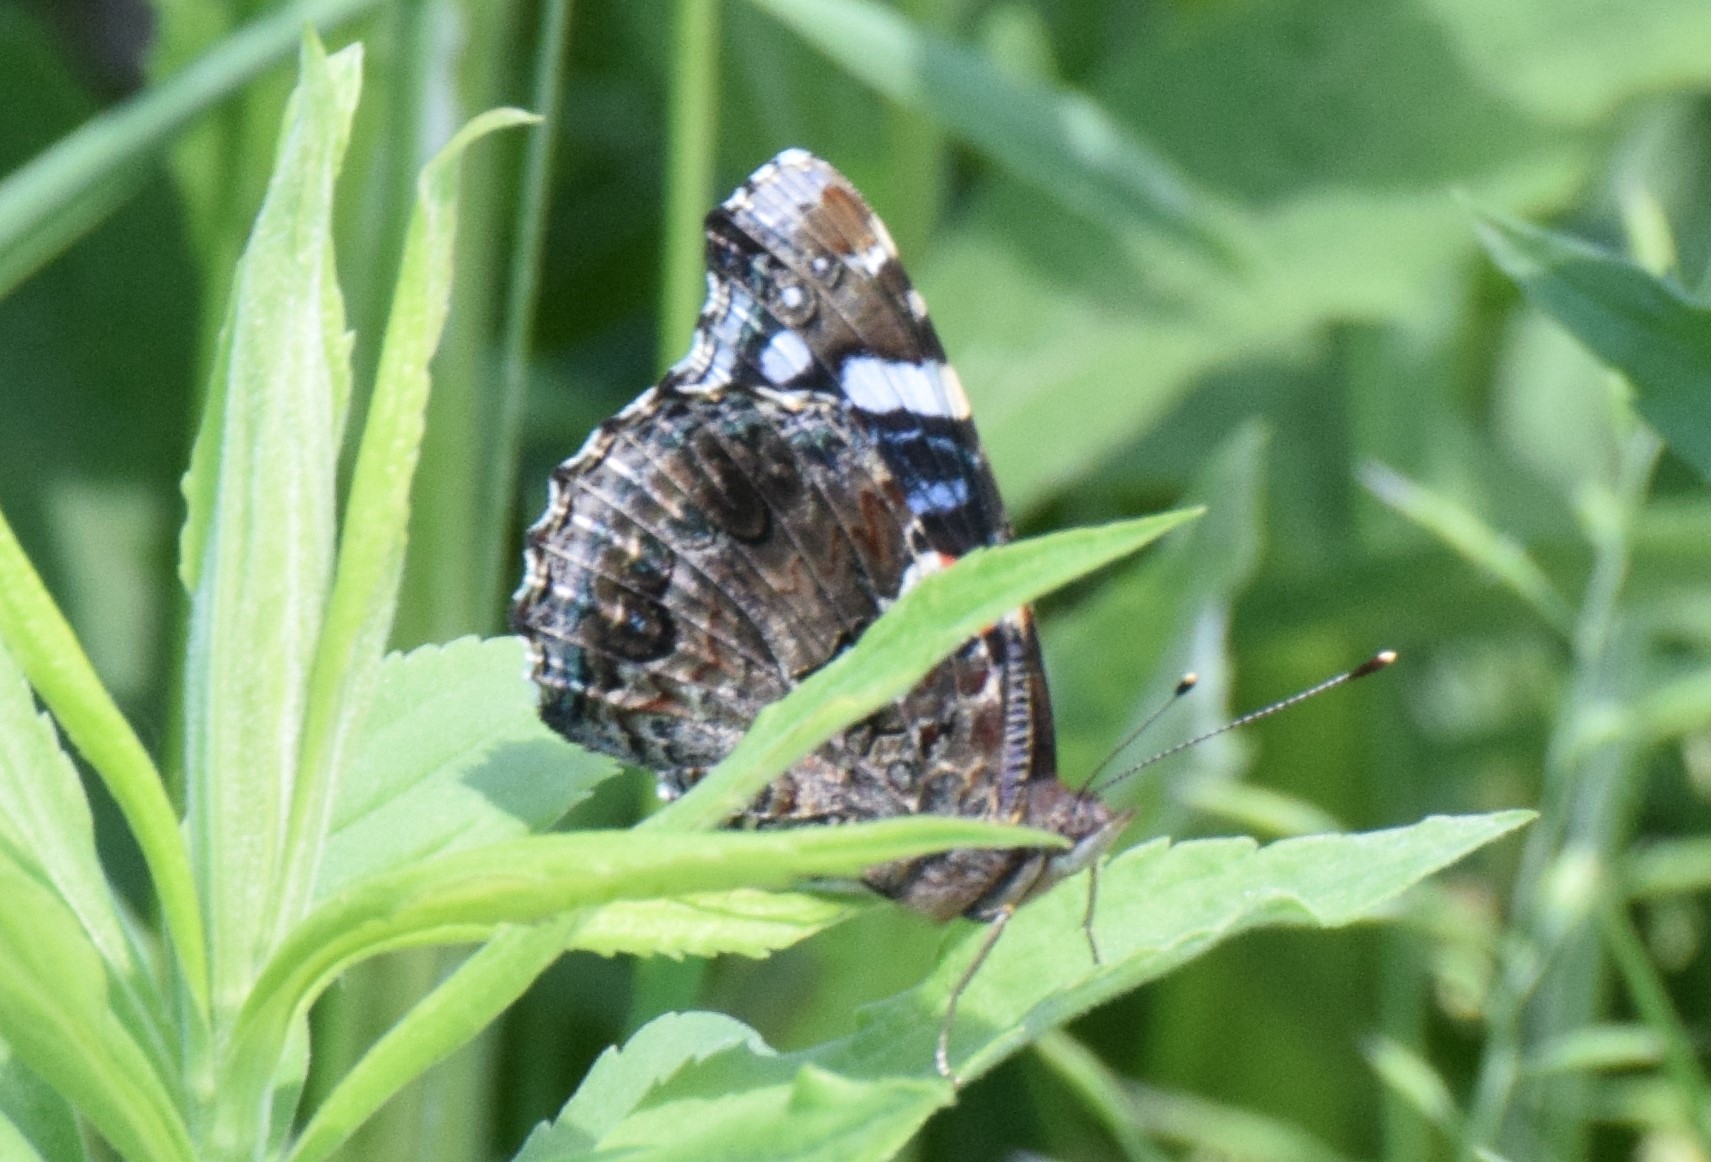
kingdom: Animalia
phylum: Arthropoda
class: Insecta
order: Lepidoptera
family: Nymphalidae
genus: Vanessa
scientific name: Vanessa atalanta
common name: Red admiral
